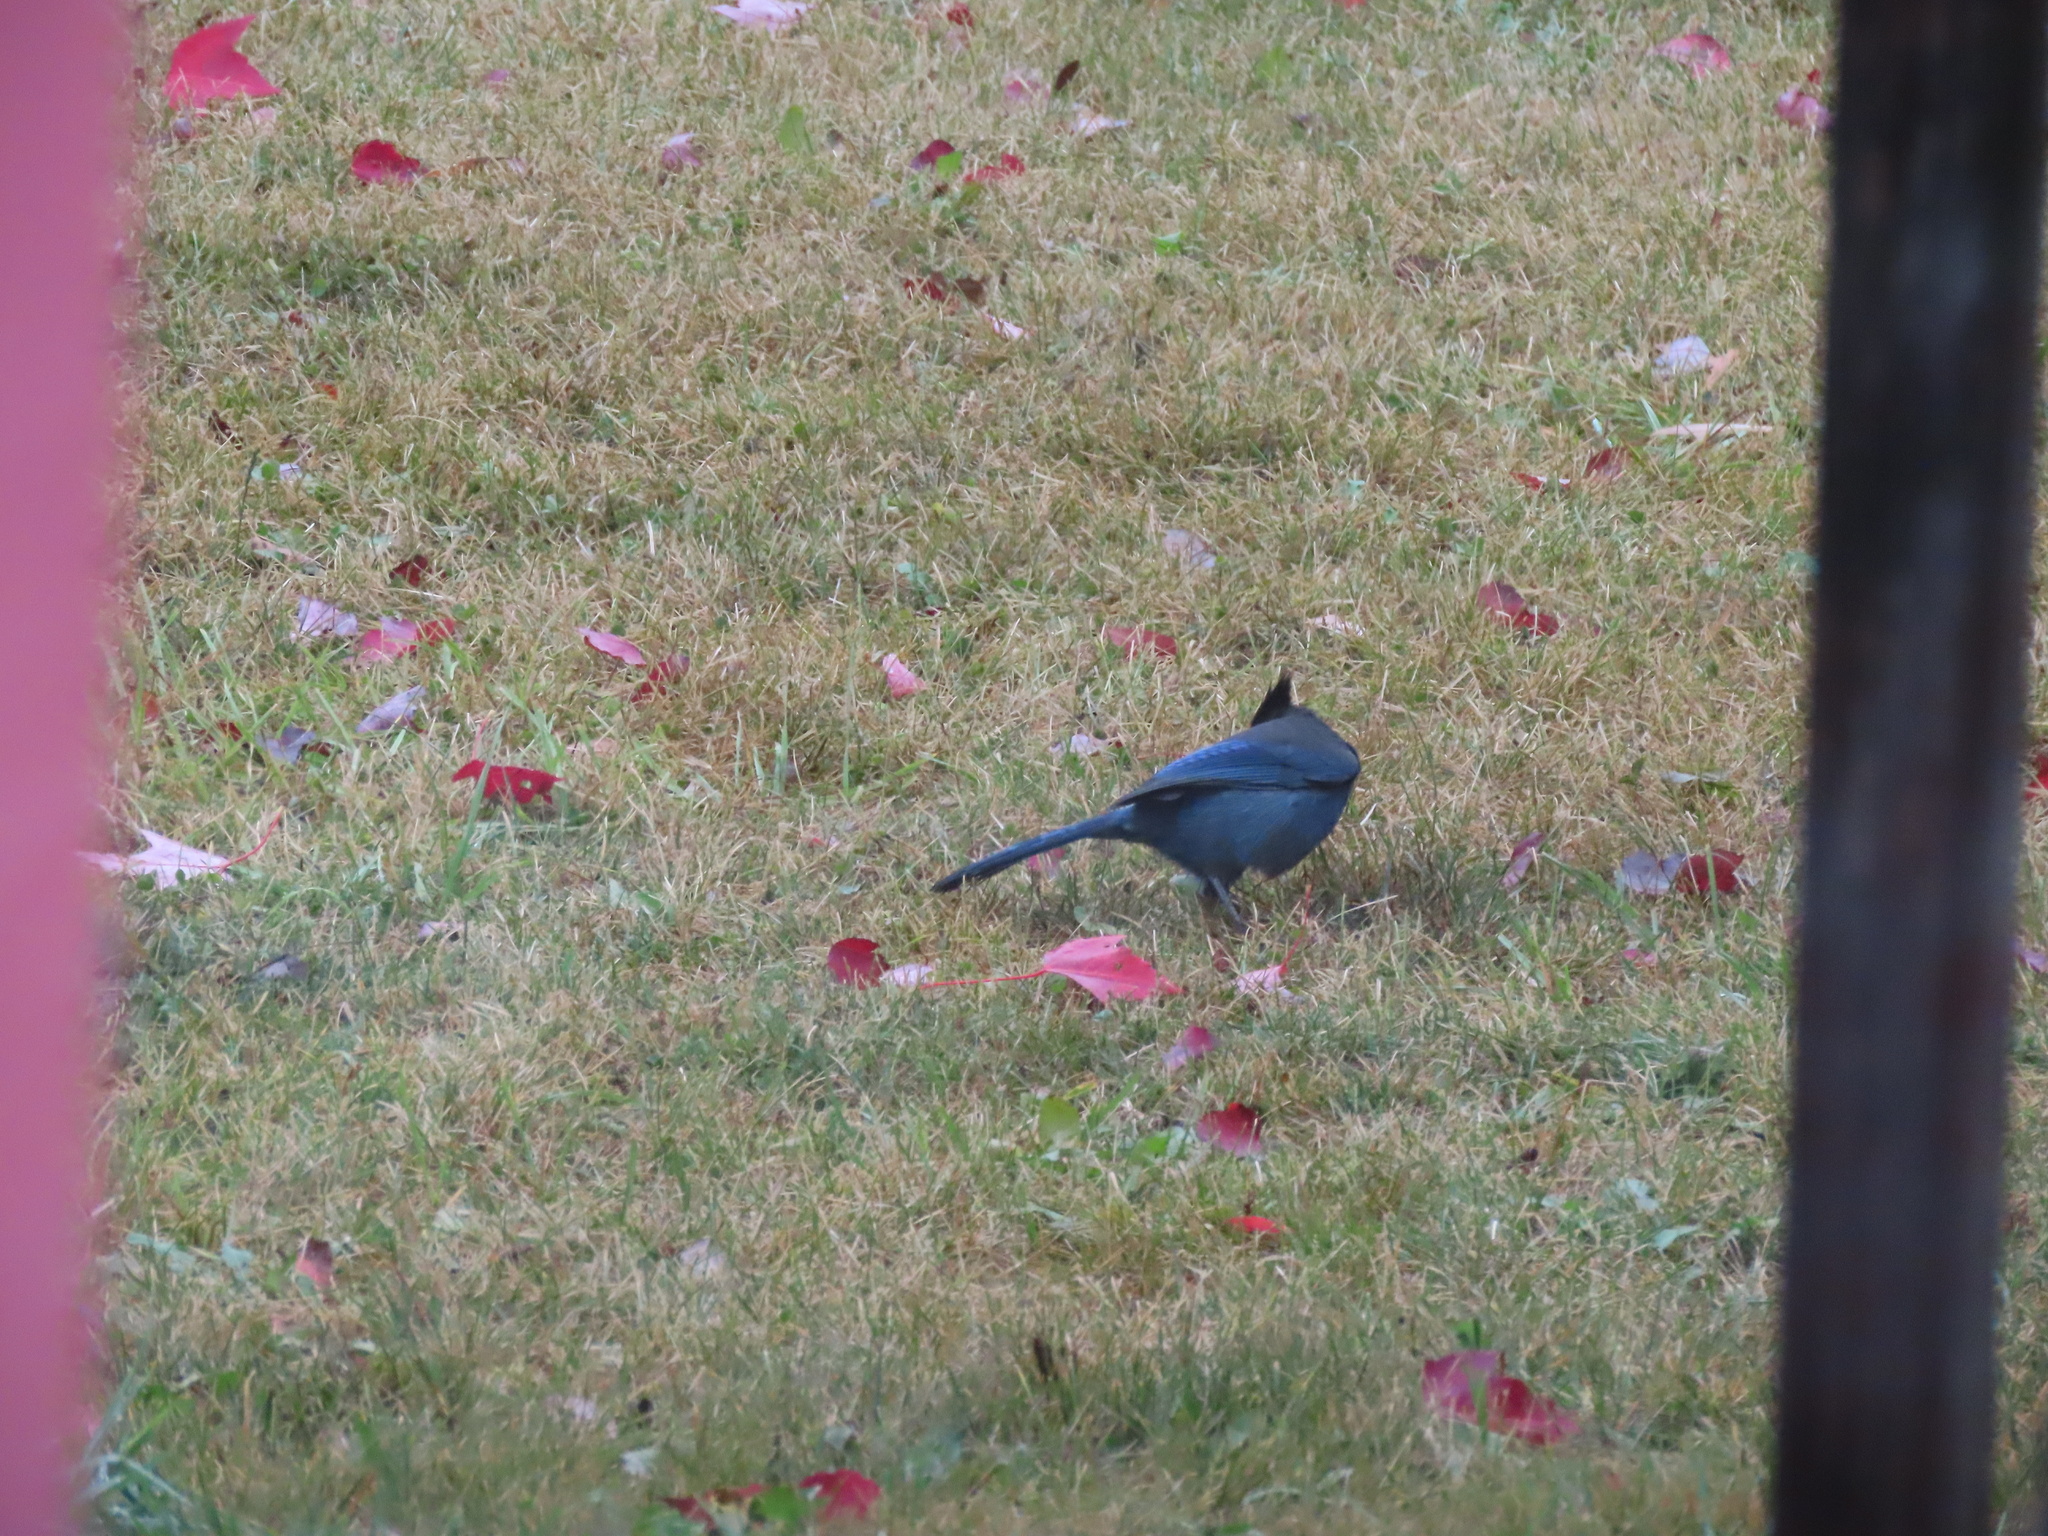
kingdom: Animalia
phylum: Chordata
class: Aves
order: Passeriformes
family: Corvidae
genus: Cyanocitta
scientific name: Cyanocitta stelleri
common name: Steller's jay
